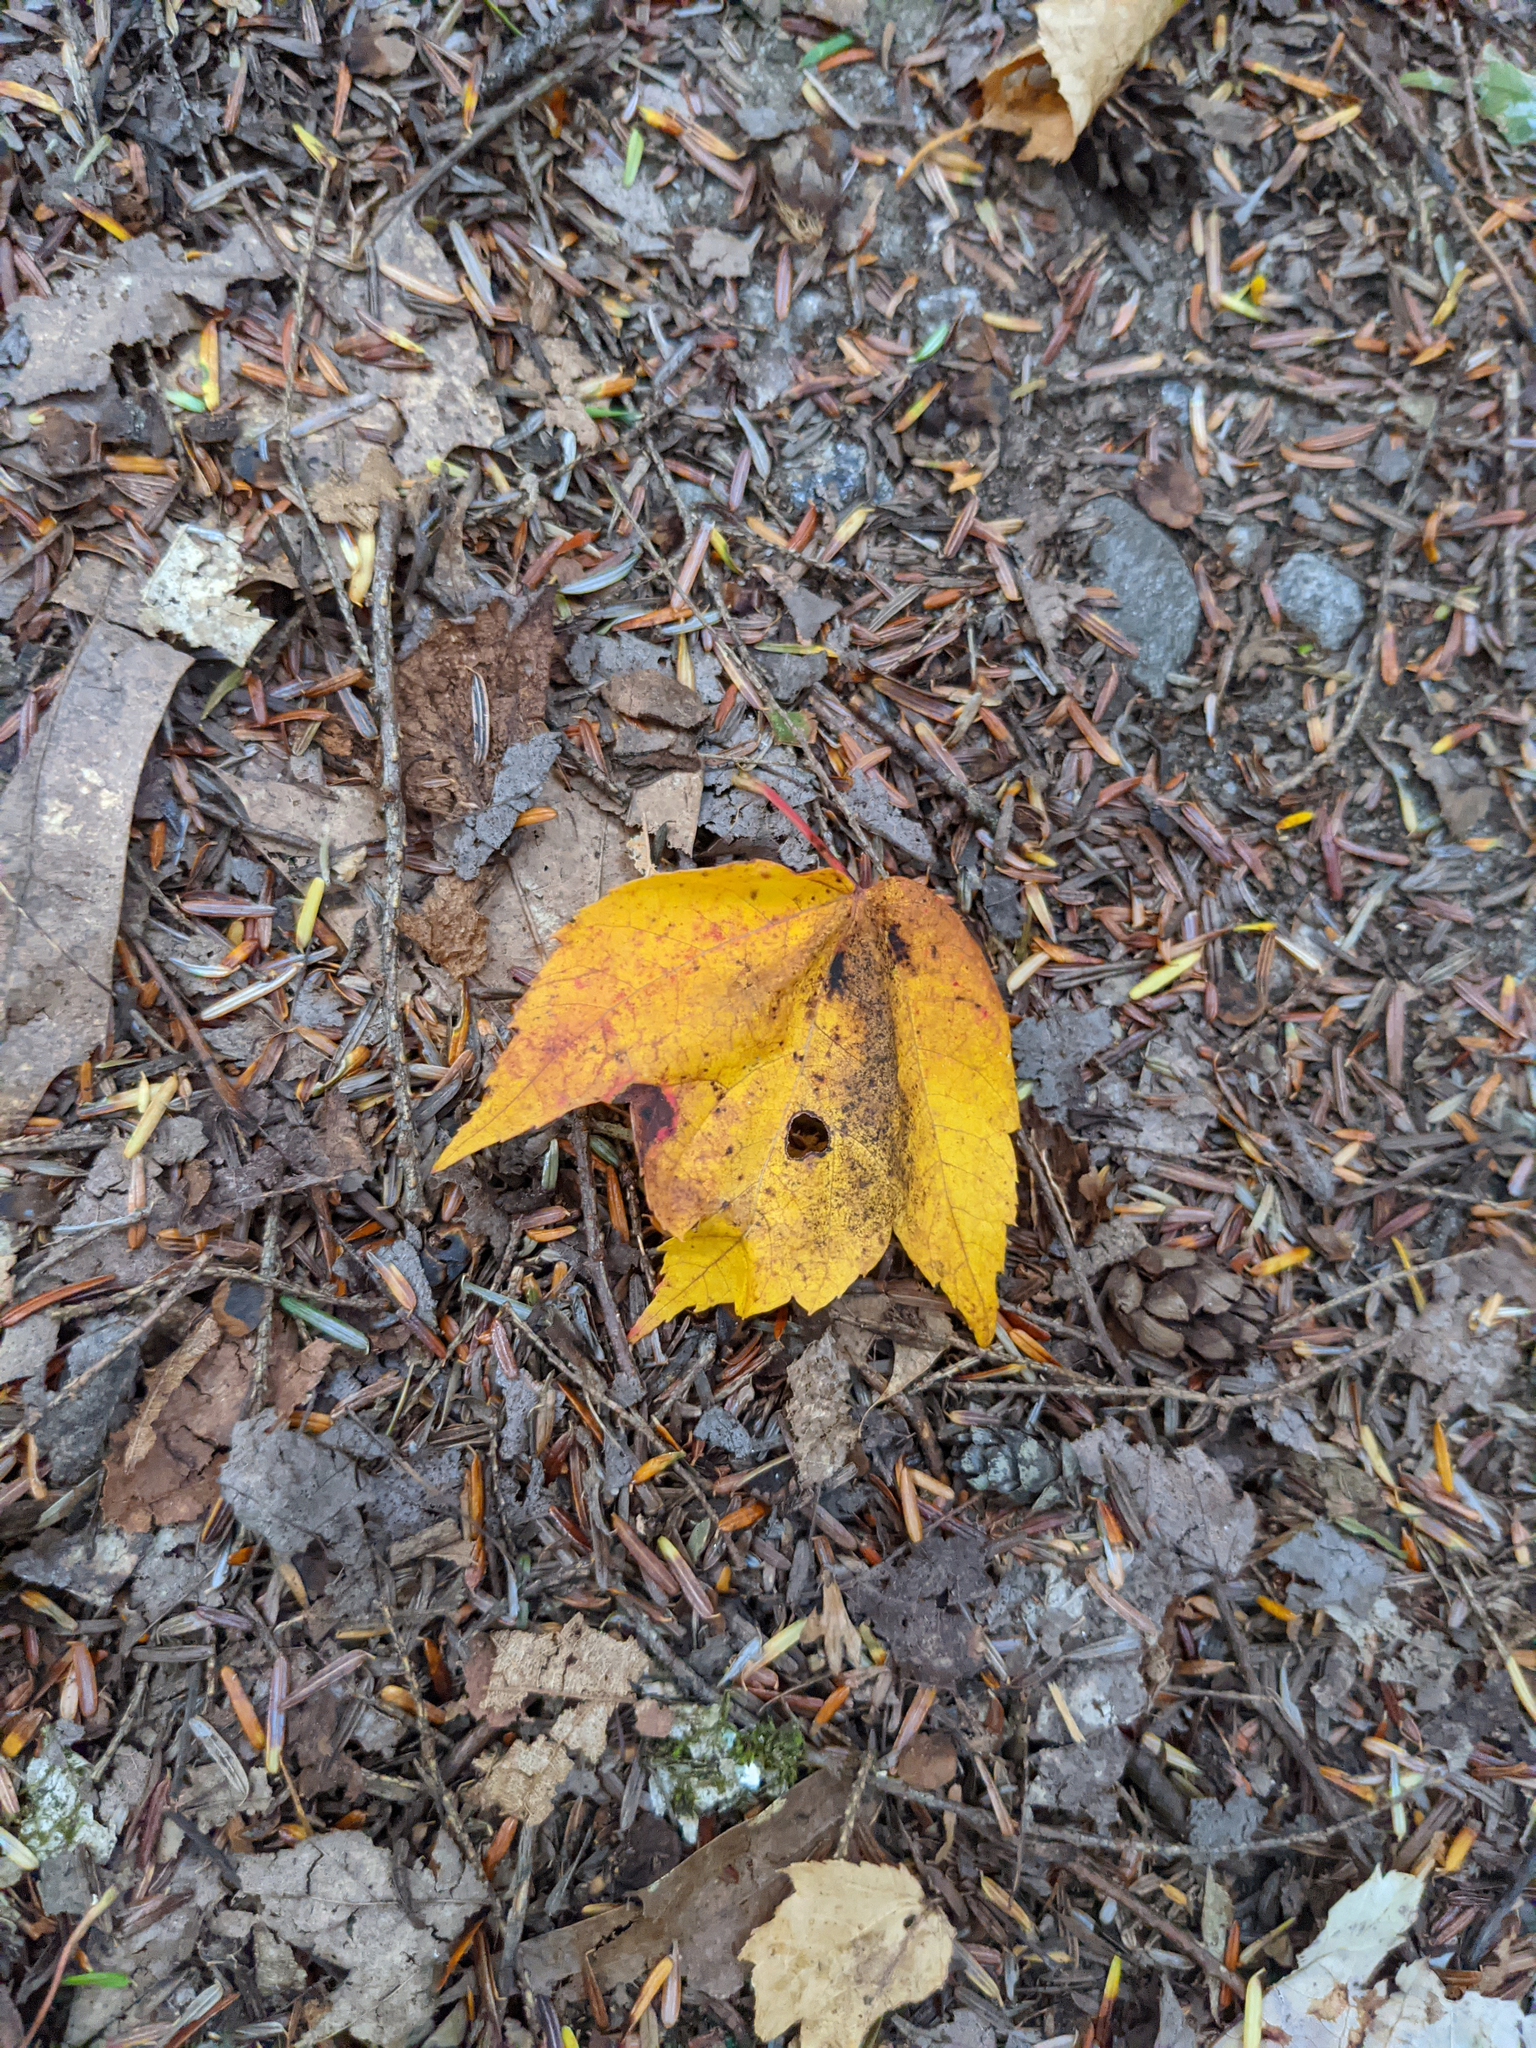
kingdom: Plantae
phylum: Tracheophyta
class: Magnoliopsida
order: Sapindales
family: Sapindaceae
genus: Acer
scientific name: Acer rubrum
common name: Red maple
